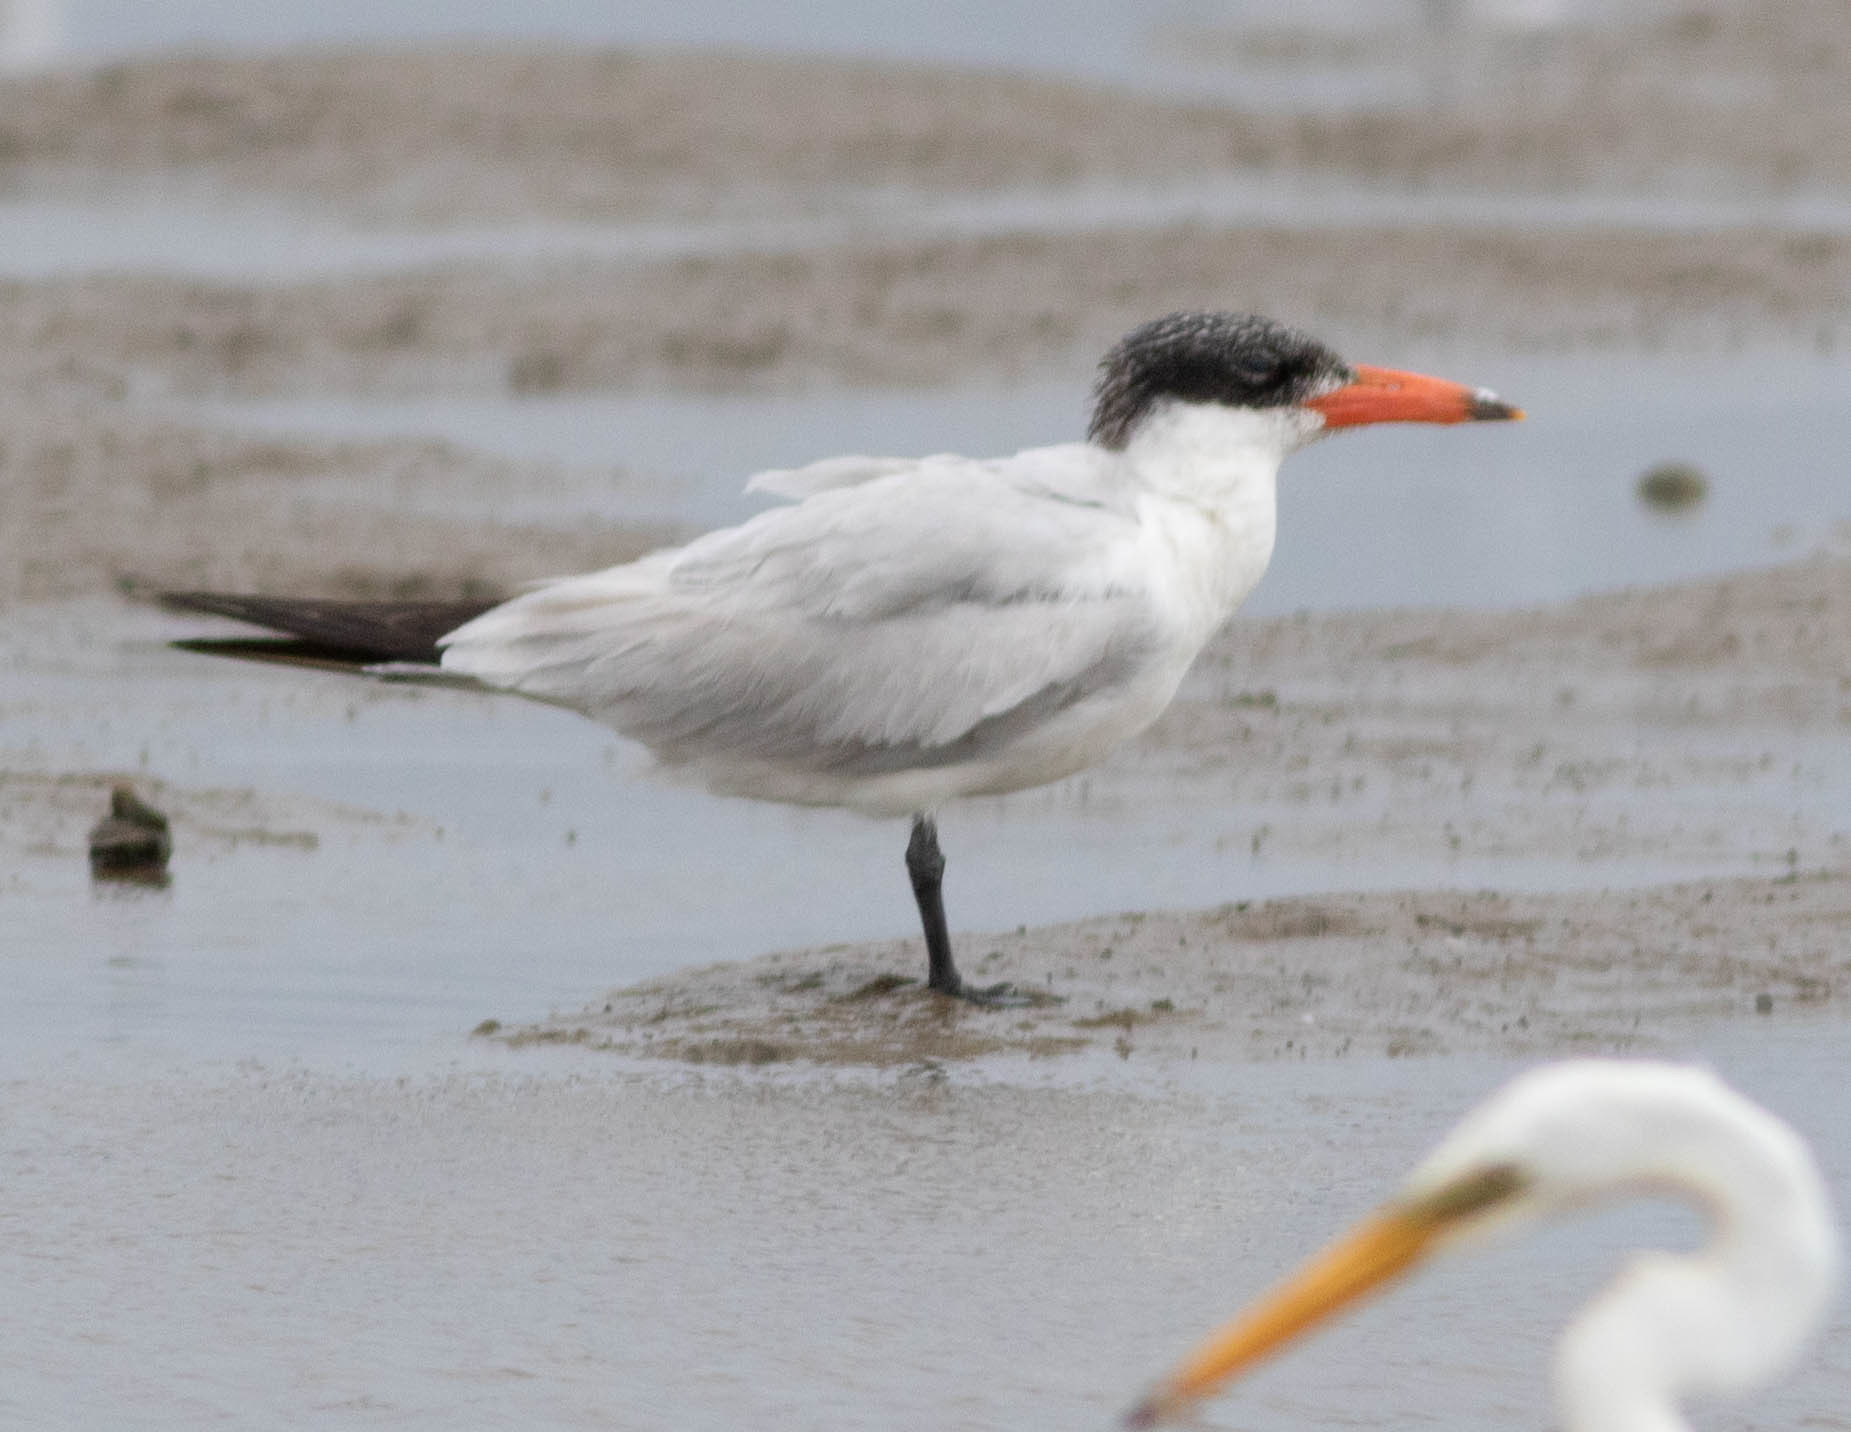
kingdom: Animalia
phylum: Chordata
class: Aves
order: Charadriiformes
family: Laridae
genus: Hydroprogne
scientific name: Hydroprogne caspia
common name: Caspian tern
